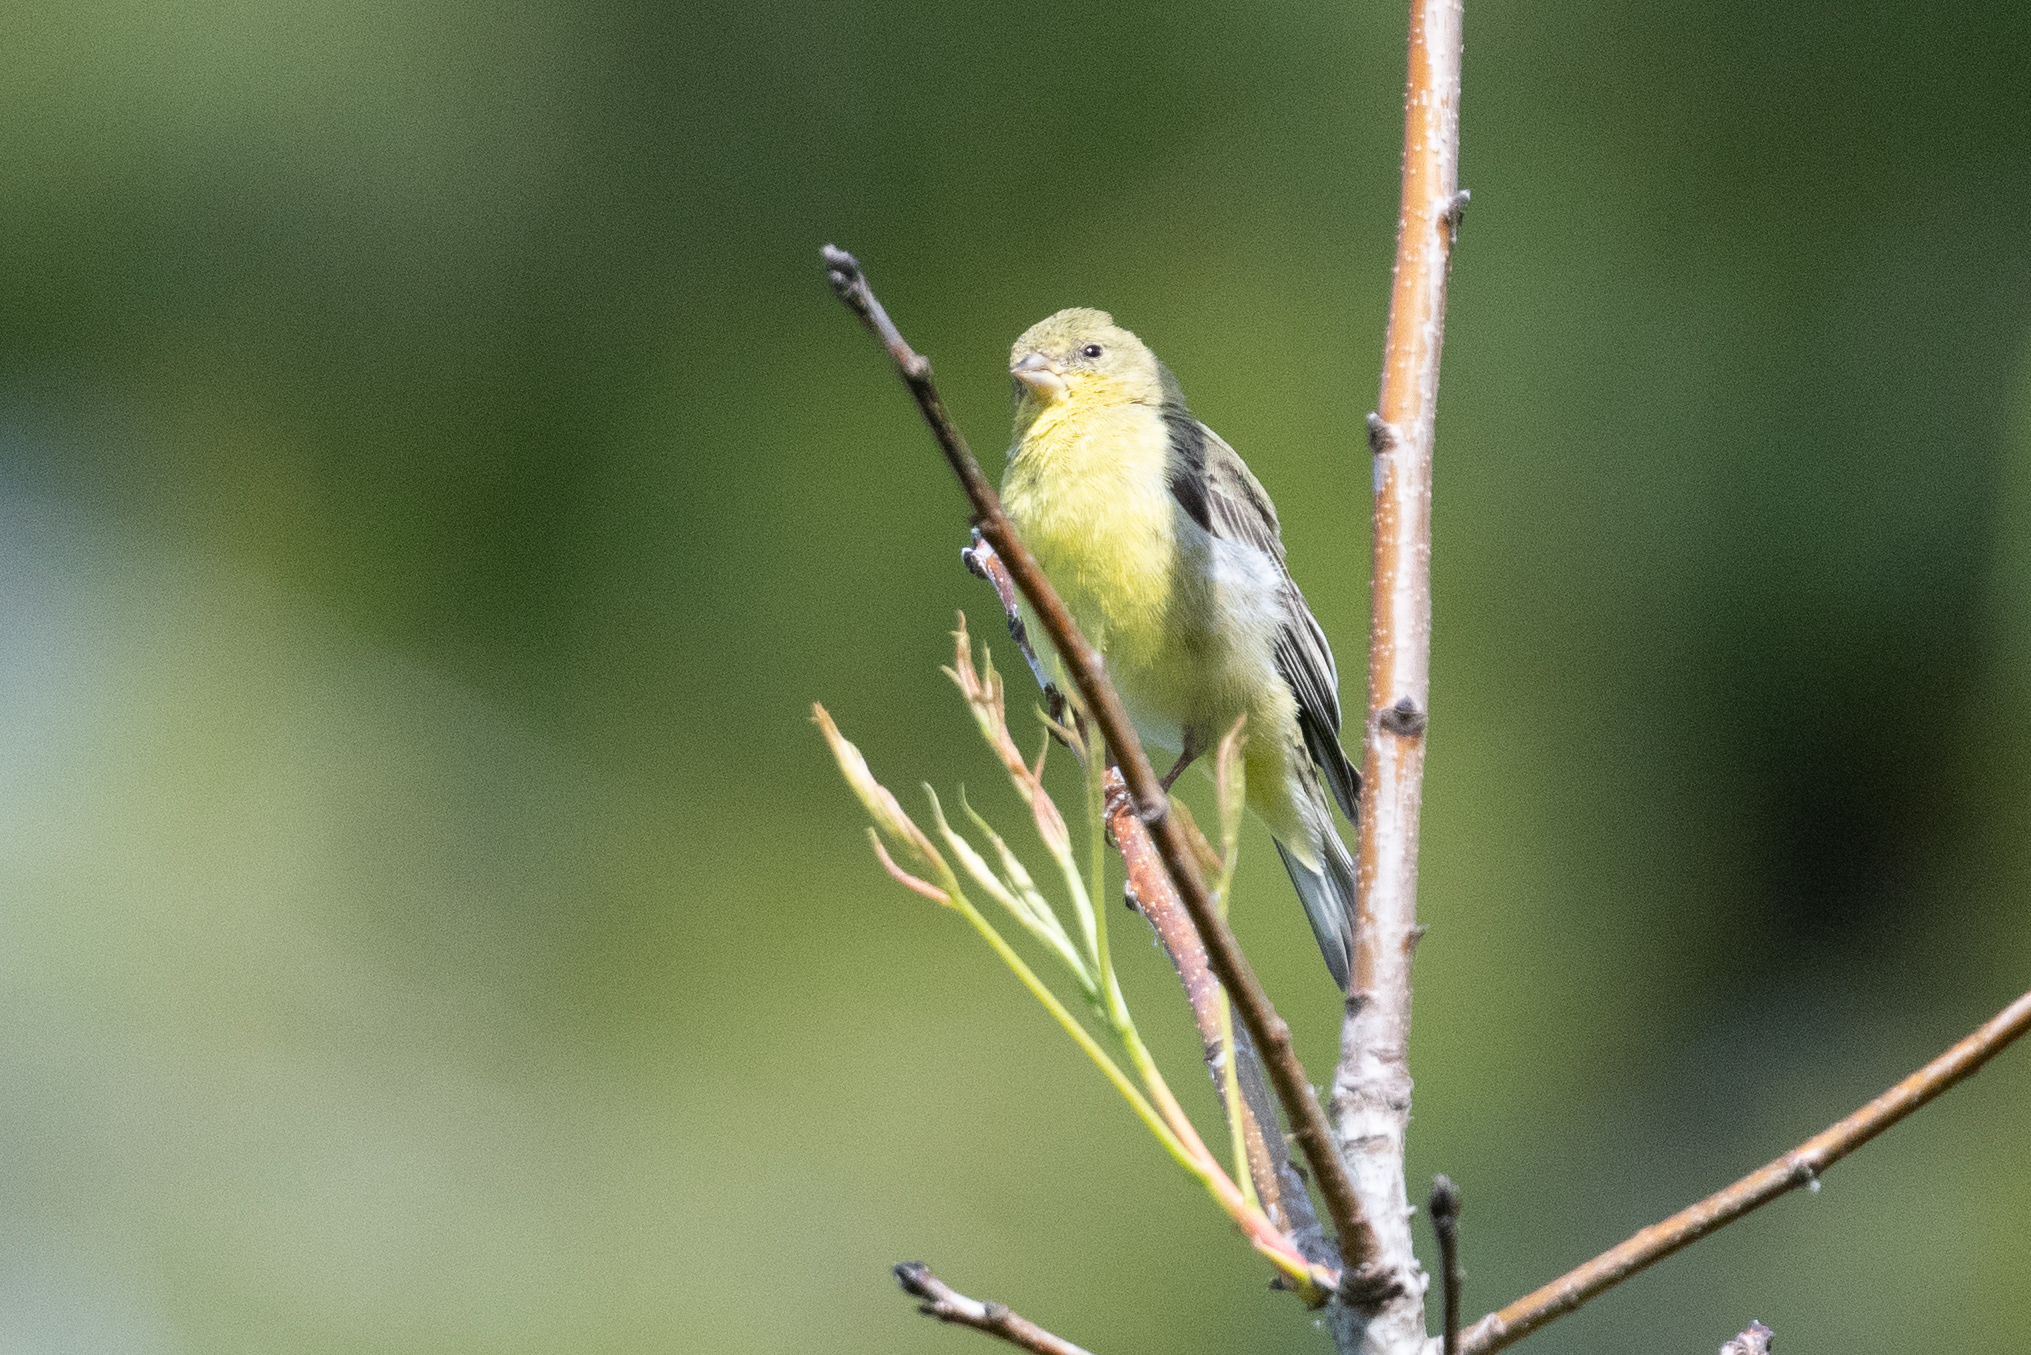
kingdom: Animalia
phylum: Chordata
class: Aves
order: Passeriformes
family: Fringillidae
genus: Spinus
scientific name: Spinus psaltria
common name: Lesser goldfinch
